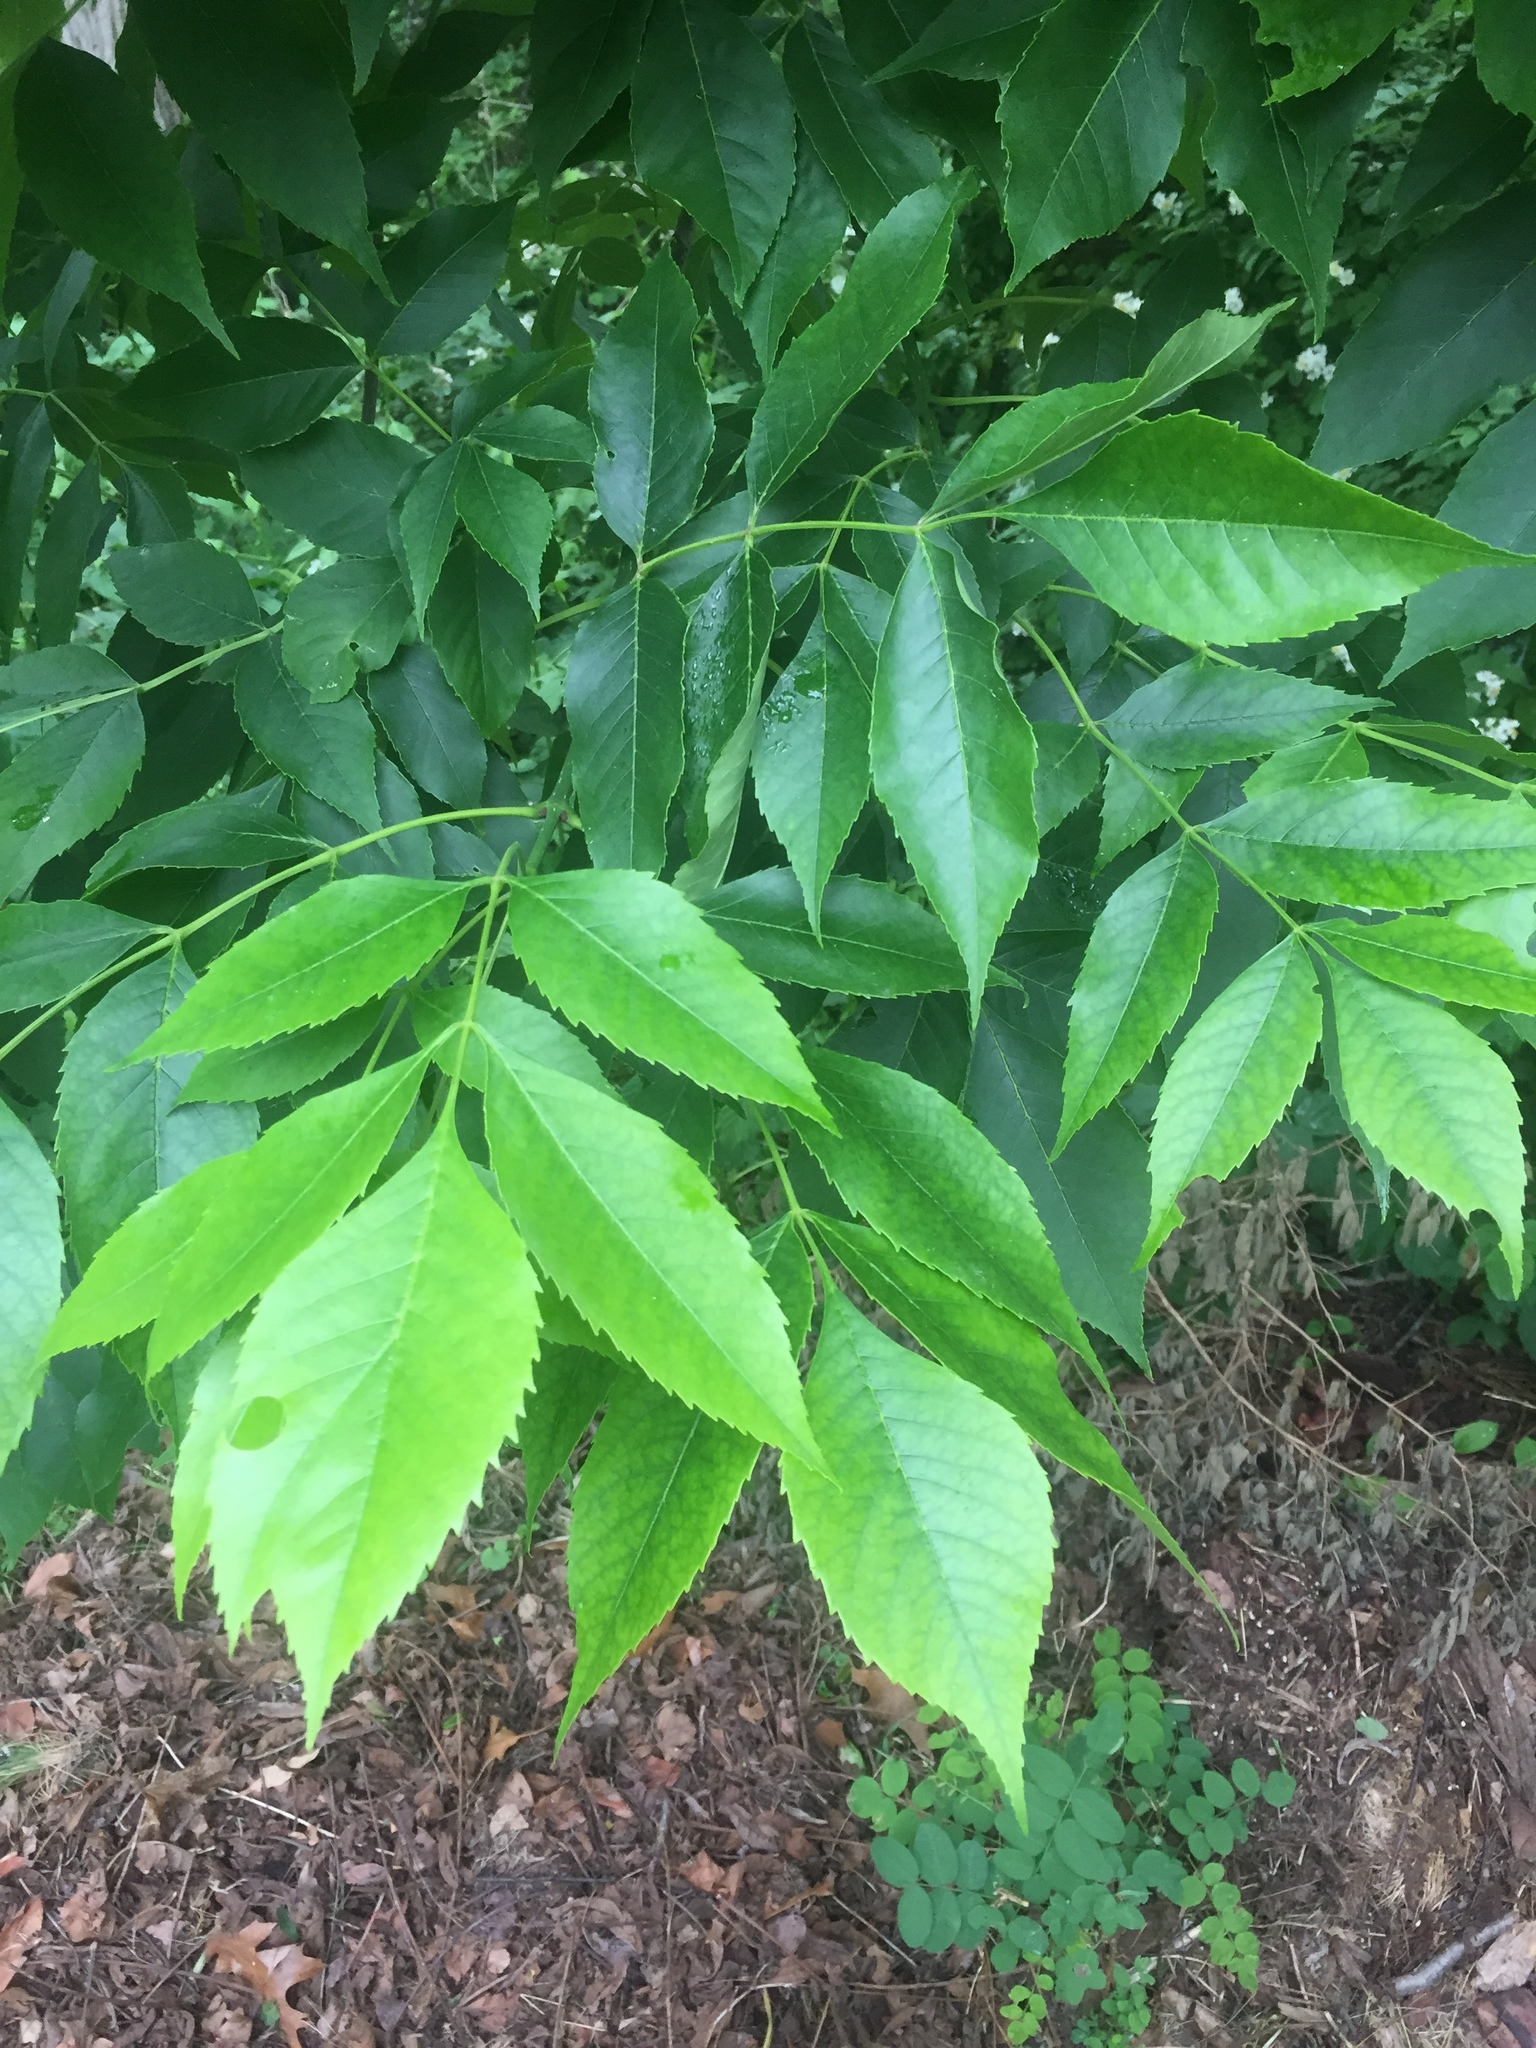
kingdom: Plantae
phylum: Tracheophyta
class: Magnoliopsida
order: Lamiales
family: Oleaceae
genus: Fraxinus
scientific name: Fraxinus pennsylvanica
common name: Green ash
